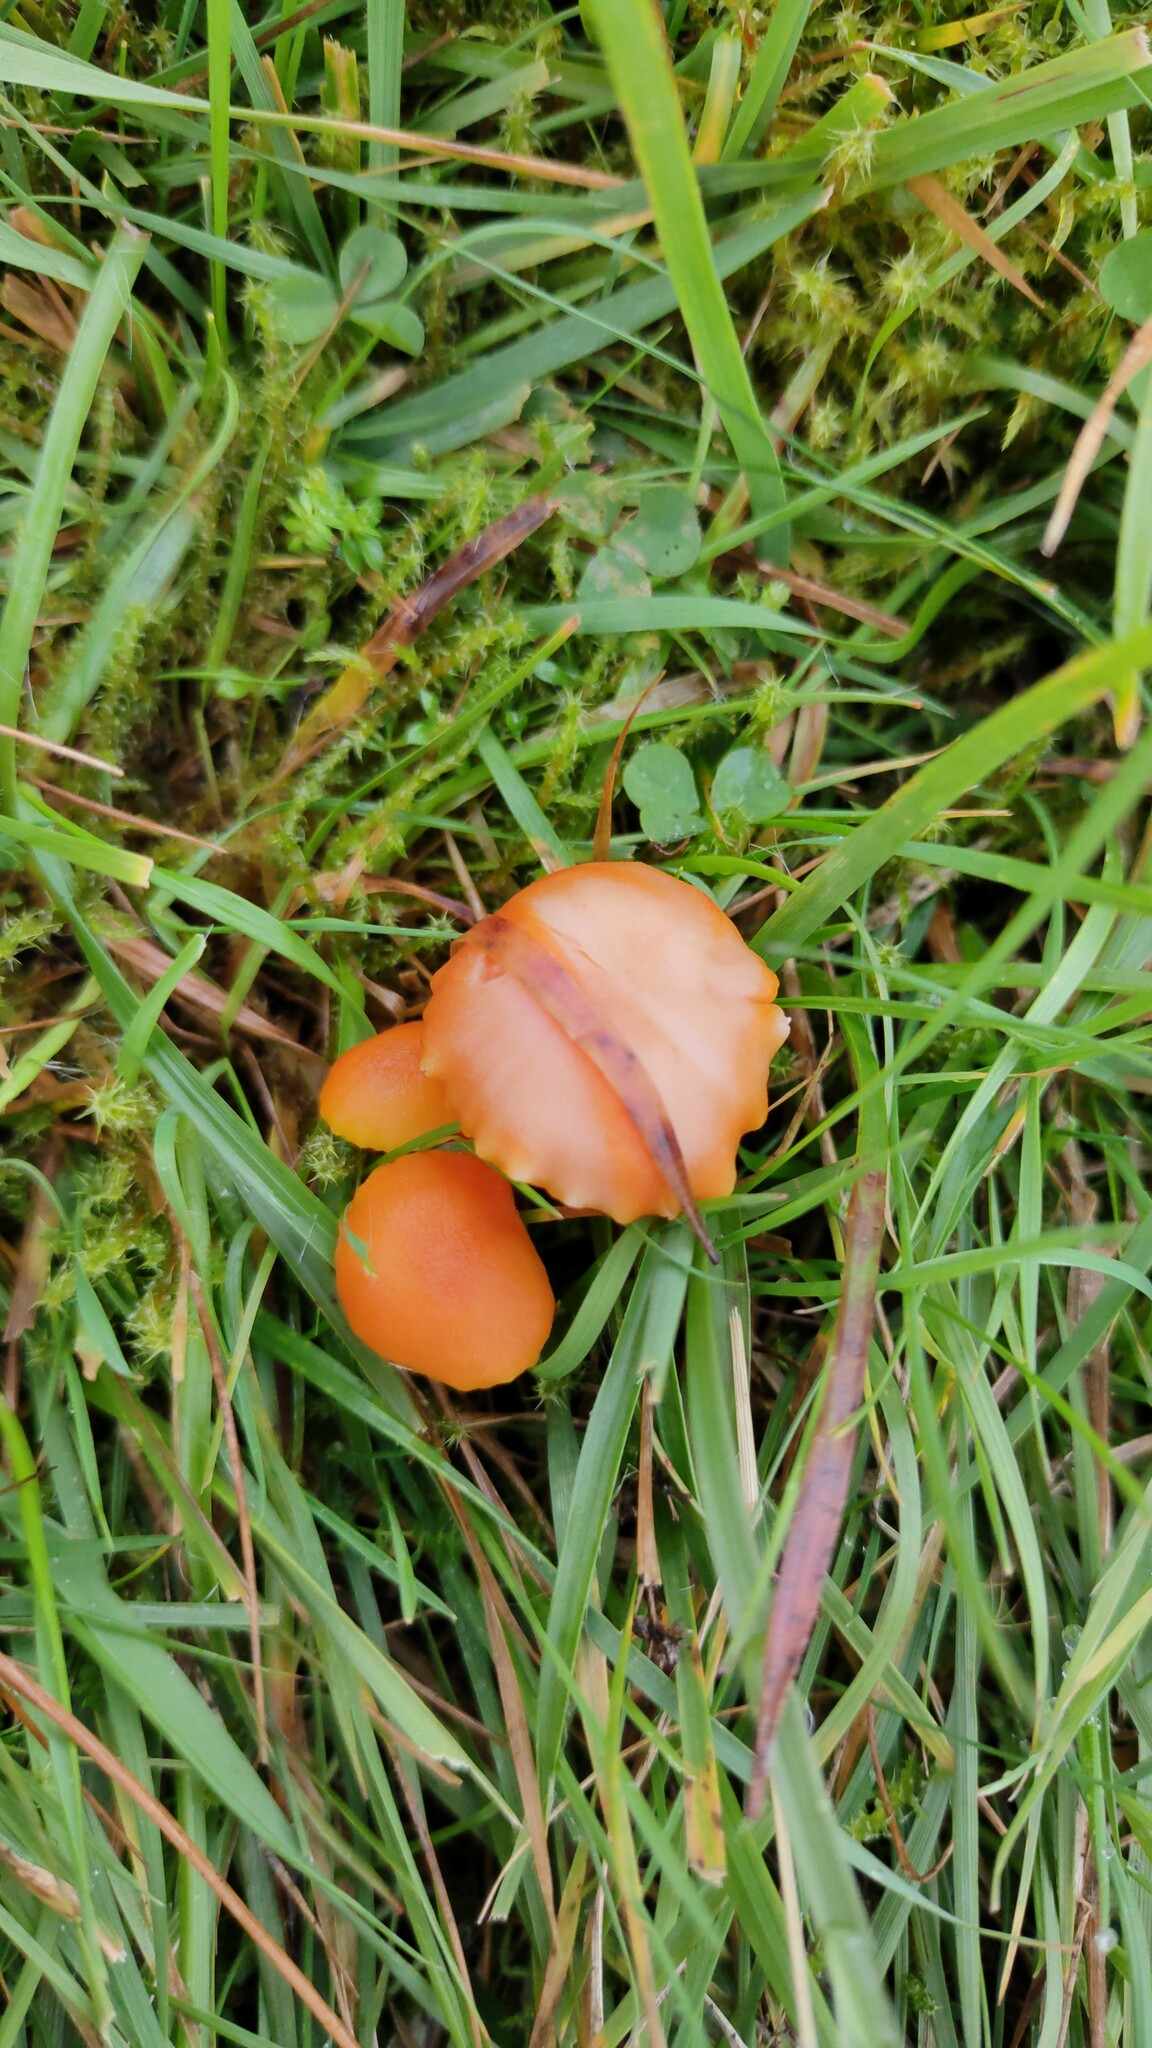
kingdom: Fungi
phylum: Basidiomycota
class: Agaricomycetes
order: Agaricales
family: Hygrophoraceae
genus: Hygrocybe
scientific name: Hygrocybe reidii
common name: Honey waxcap
